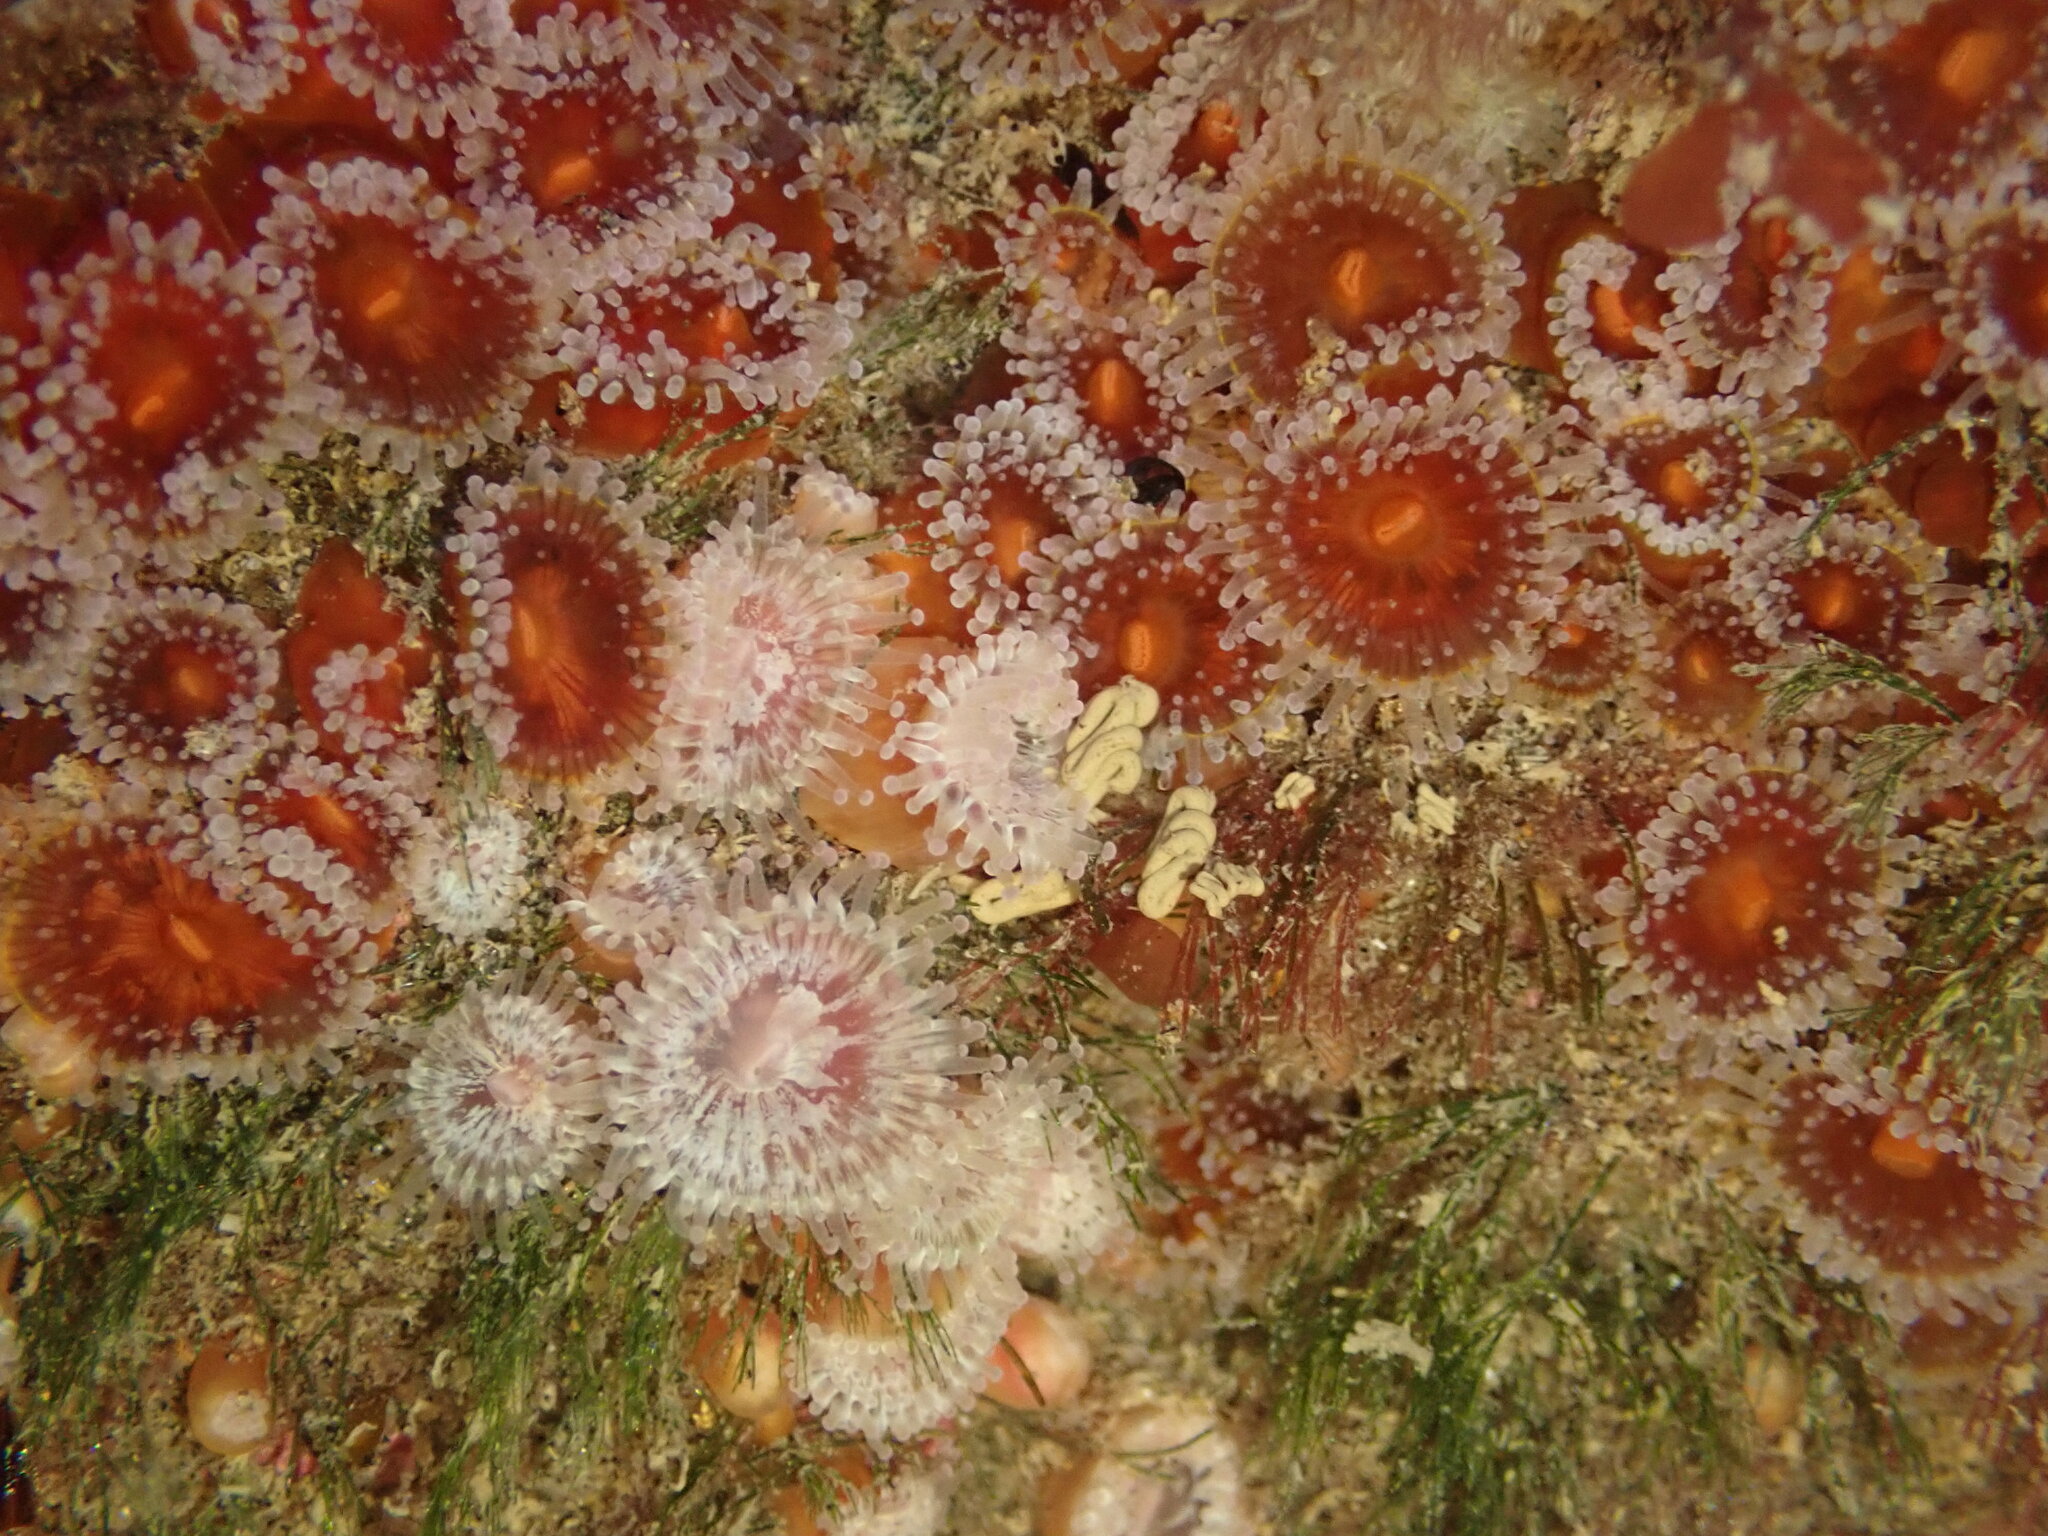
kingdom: Animalia
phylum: Cnidaria
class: Anthozoa
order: Corallimorpharia
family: Corallimorphidae
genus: Corynactis
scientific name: Corynactis australis
